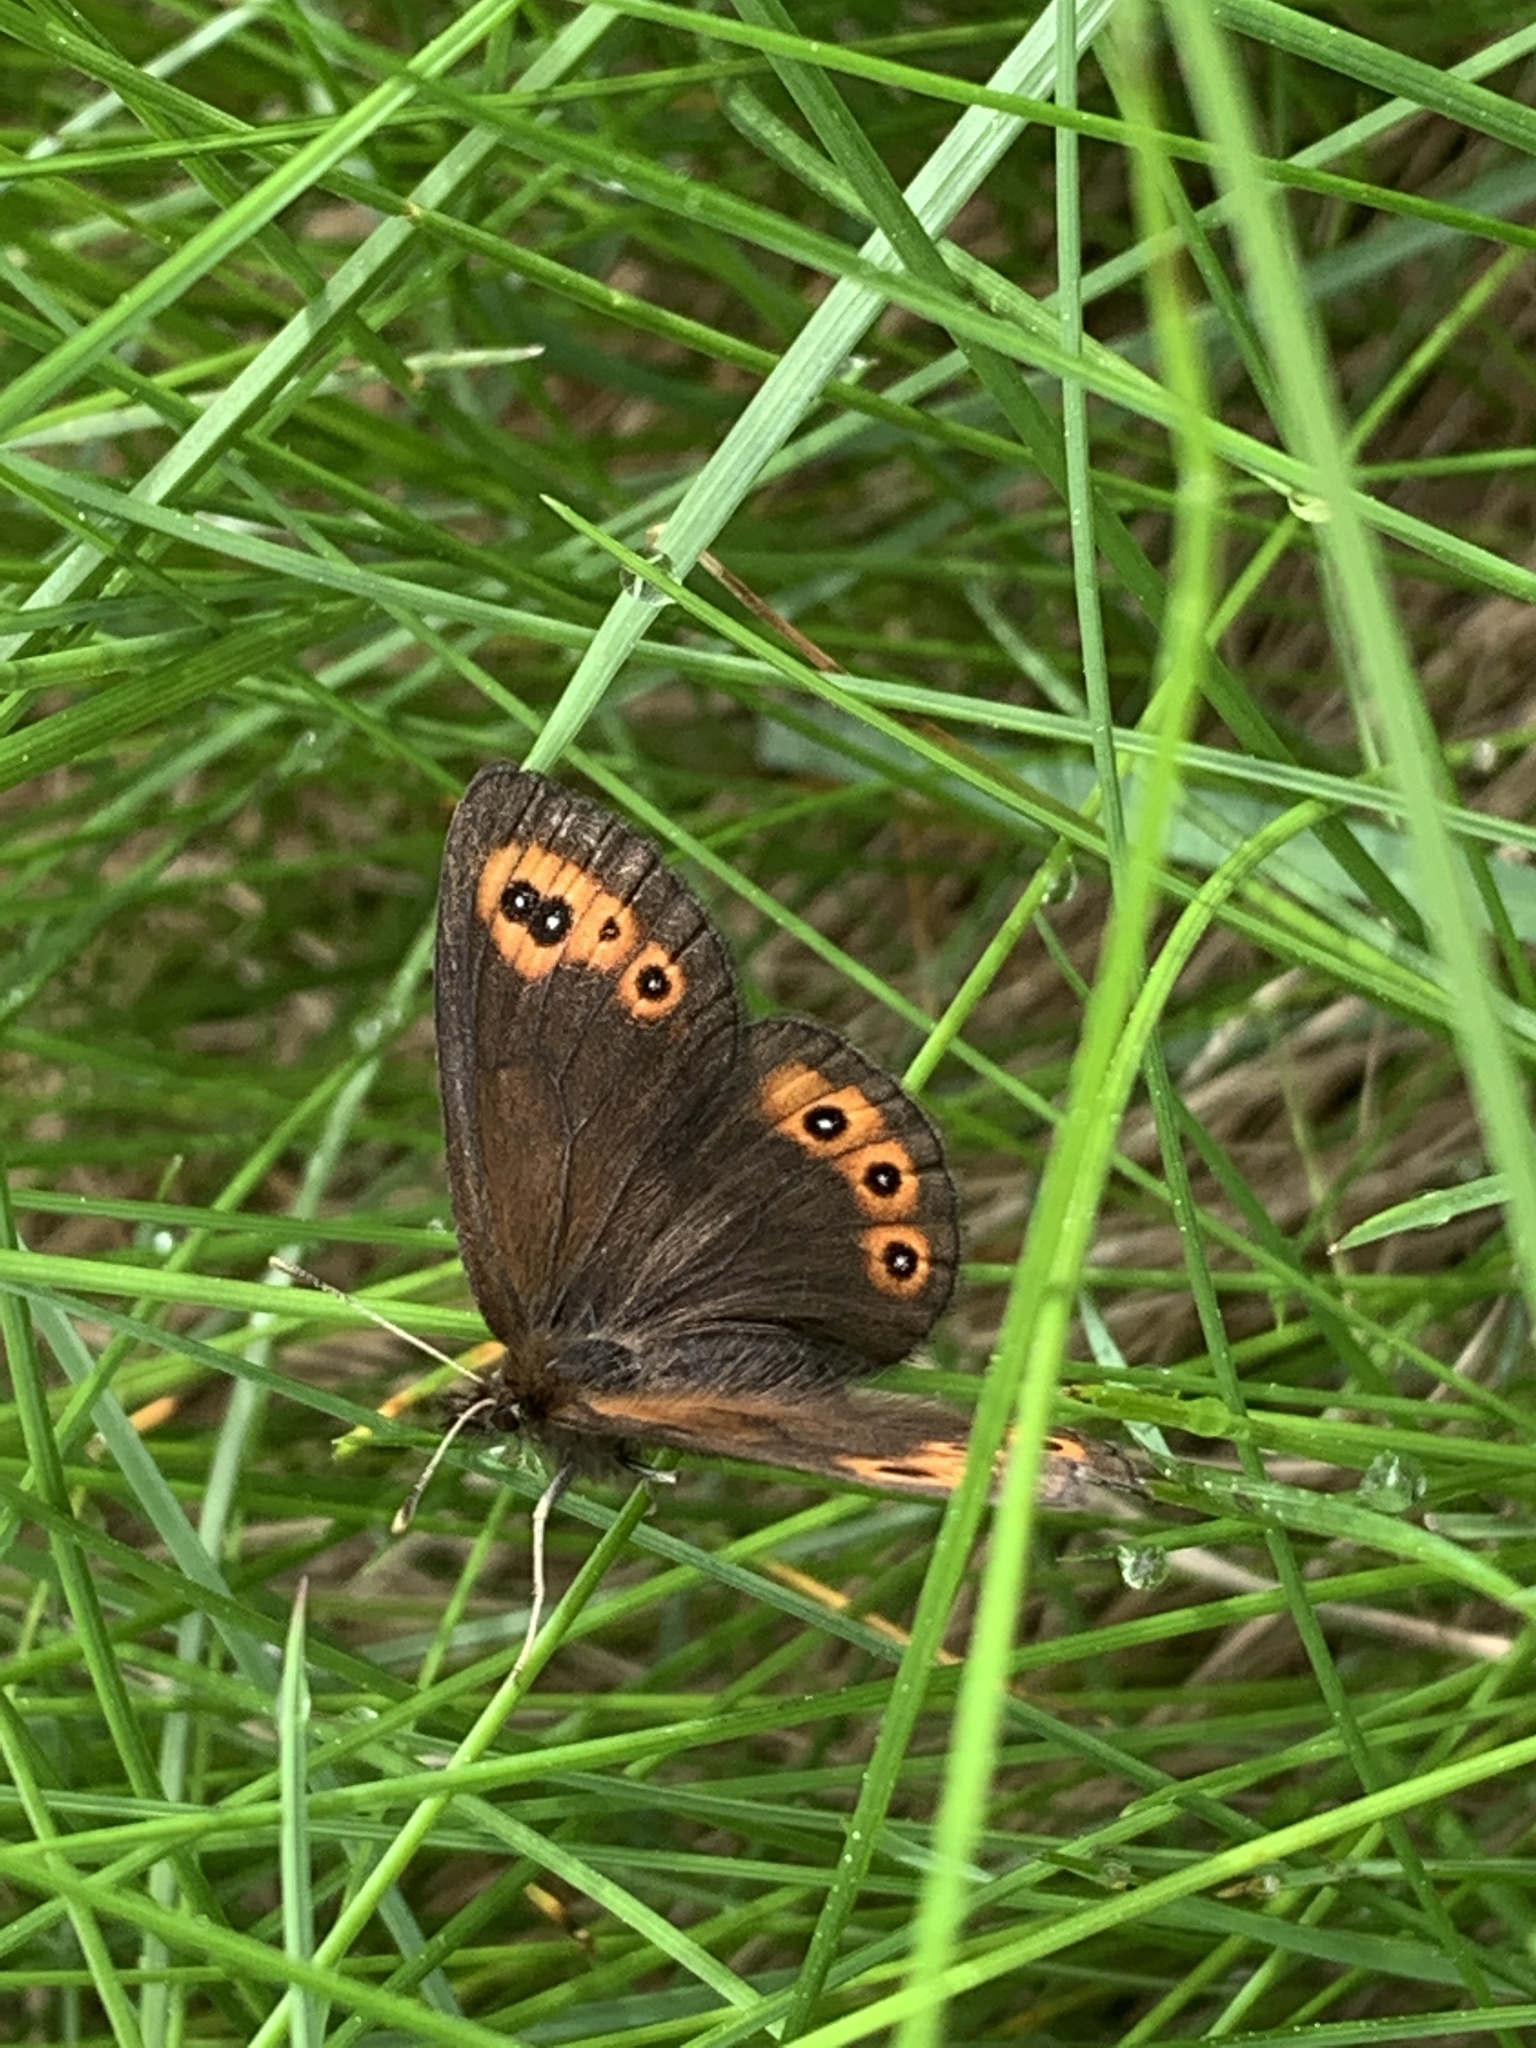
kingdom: Animalia
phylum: Arthropoda
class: Insecta
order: Lepidoptera
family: Nymphalidae
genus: Erebia
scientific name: Erebia epipsodea
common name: Common alpine
